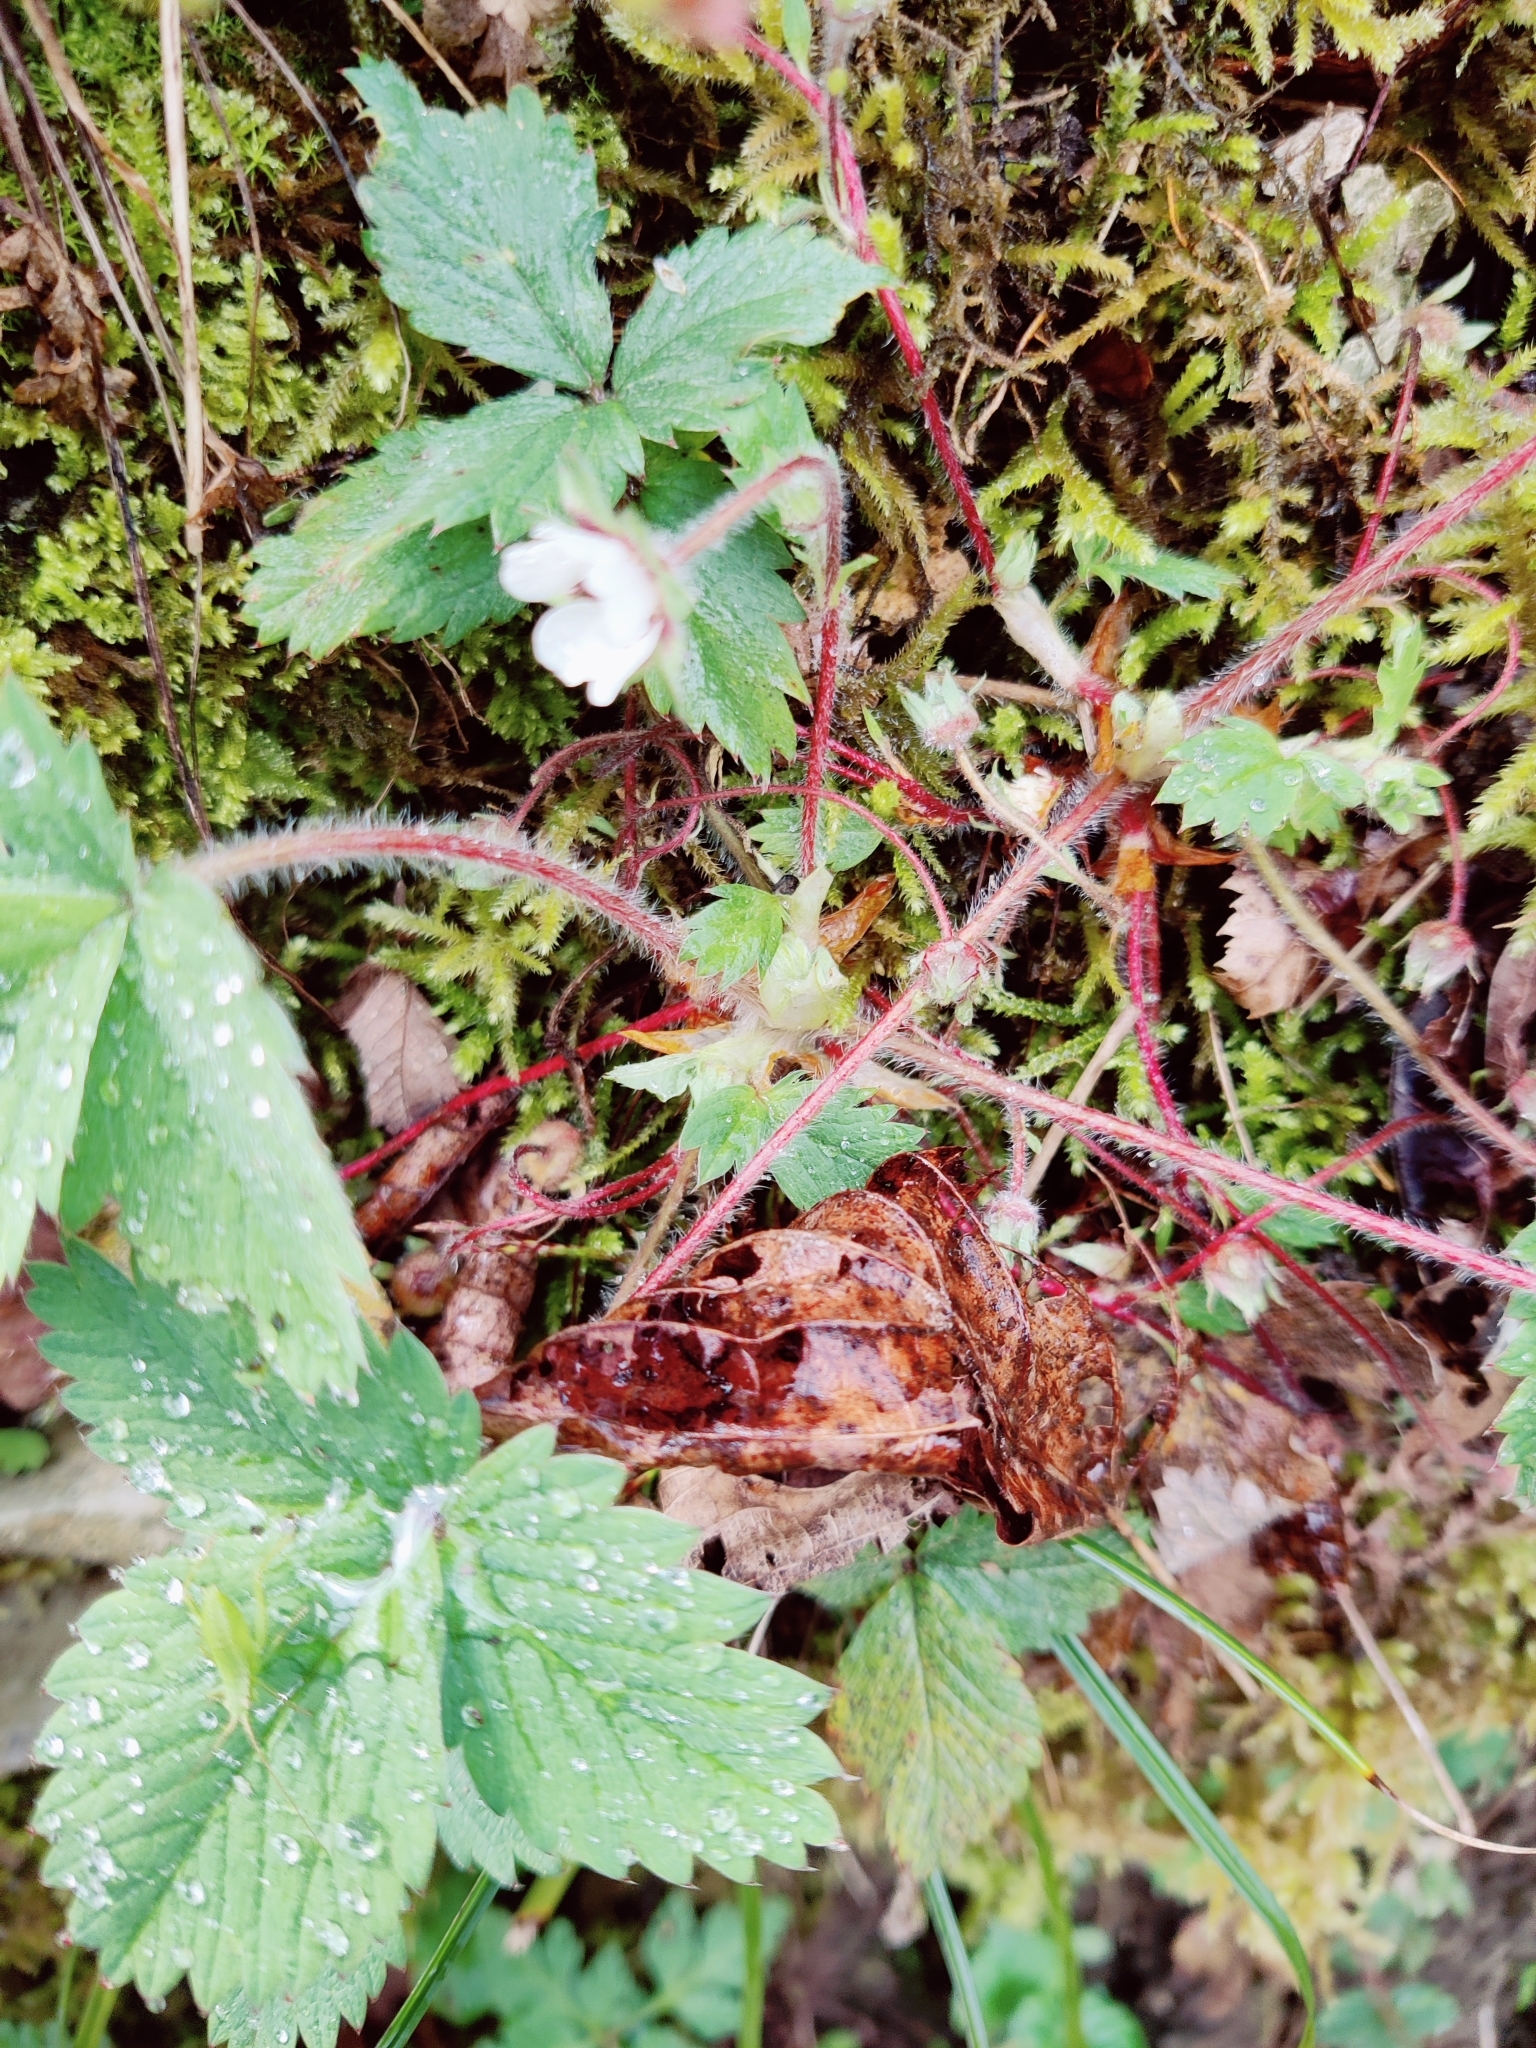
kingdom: Plantae
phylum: Tracheophyta
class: Magnoliopsida
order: Rosales
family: Rosaceae
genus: Potentilla
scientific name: Potentilla micrantha
